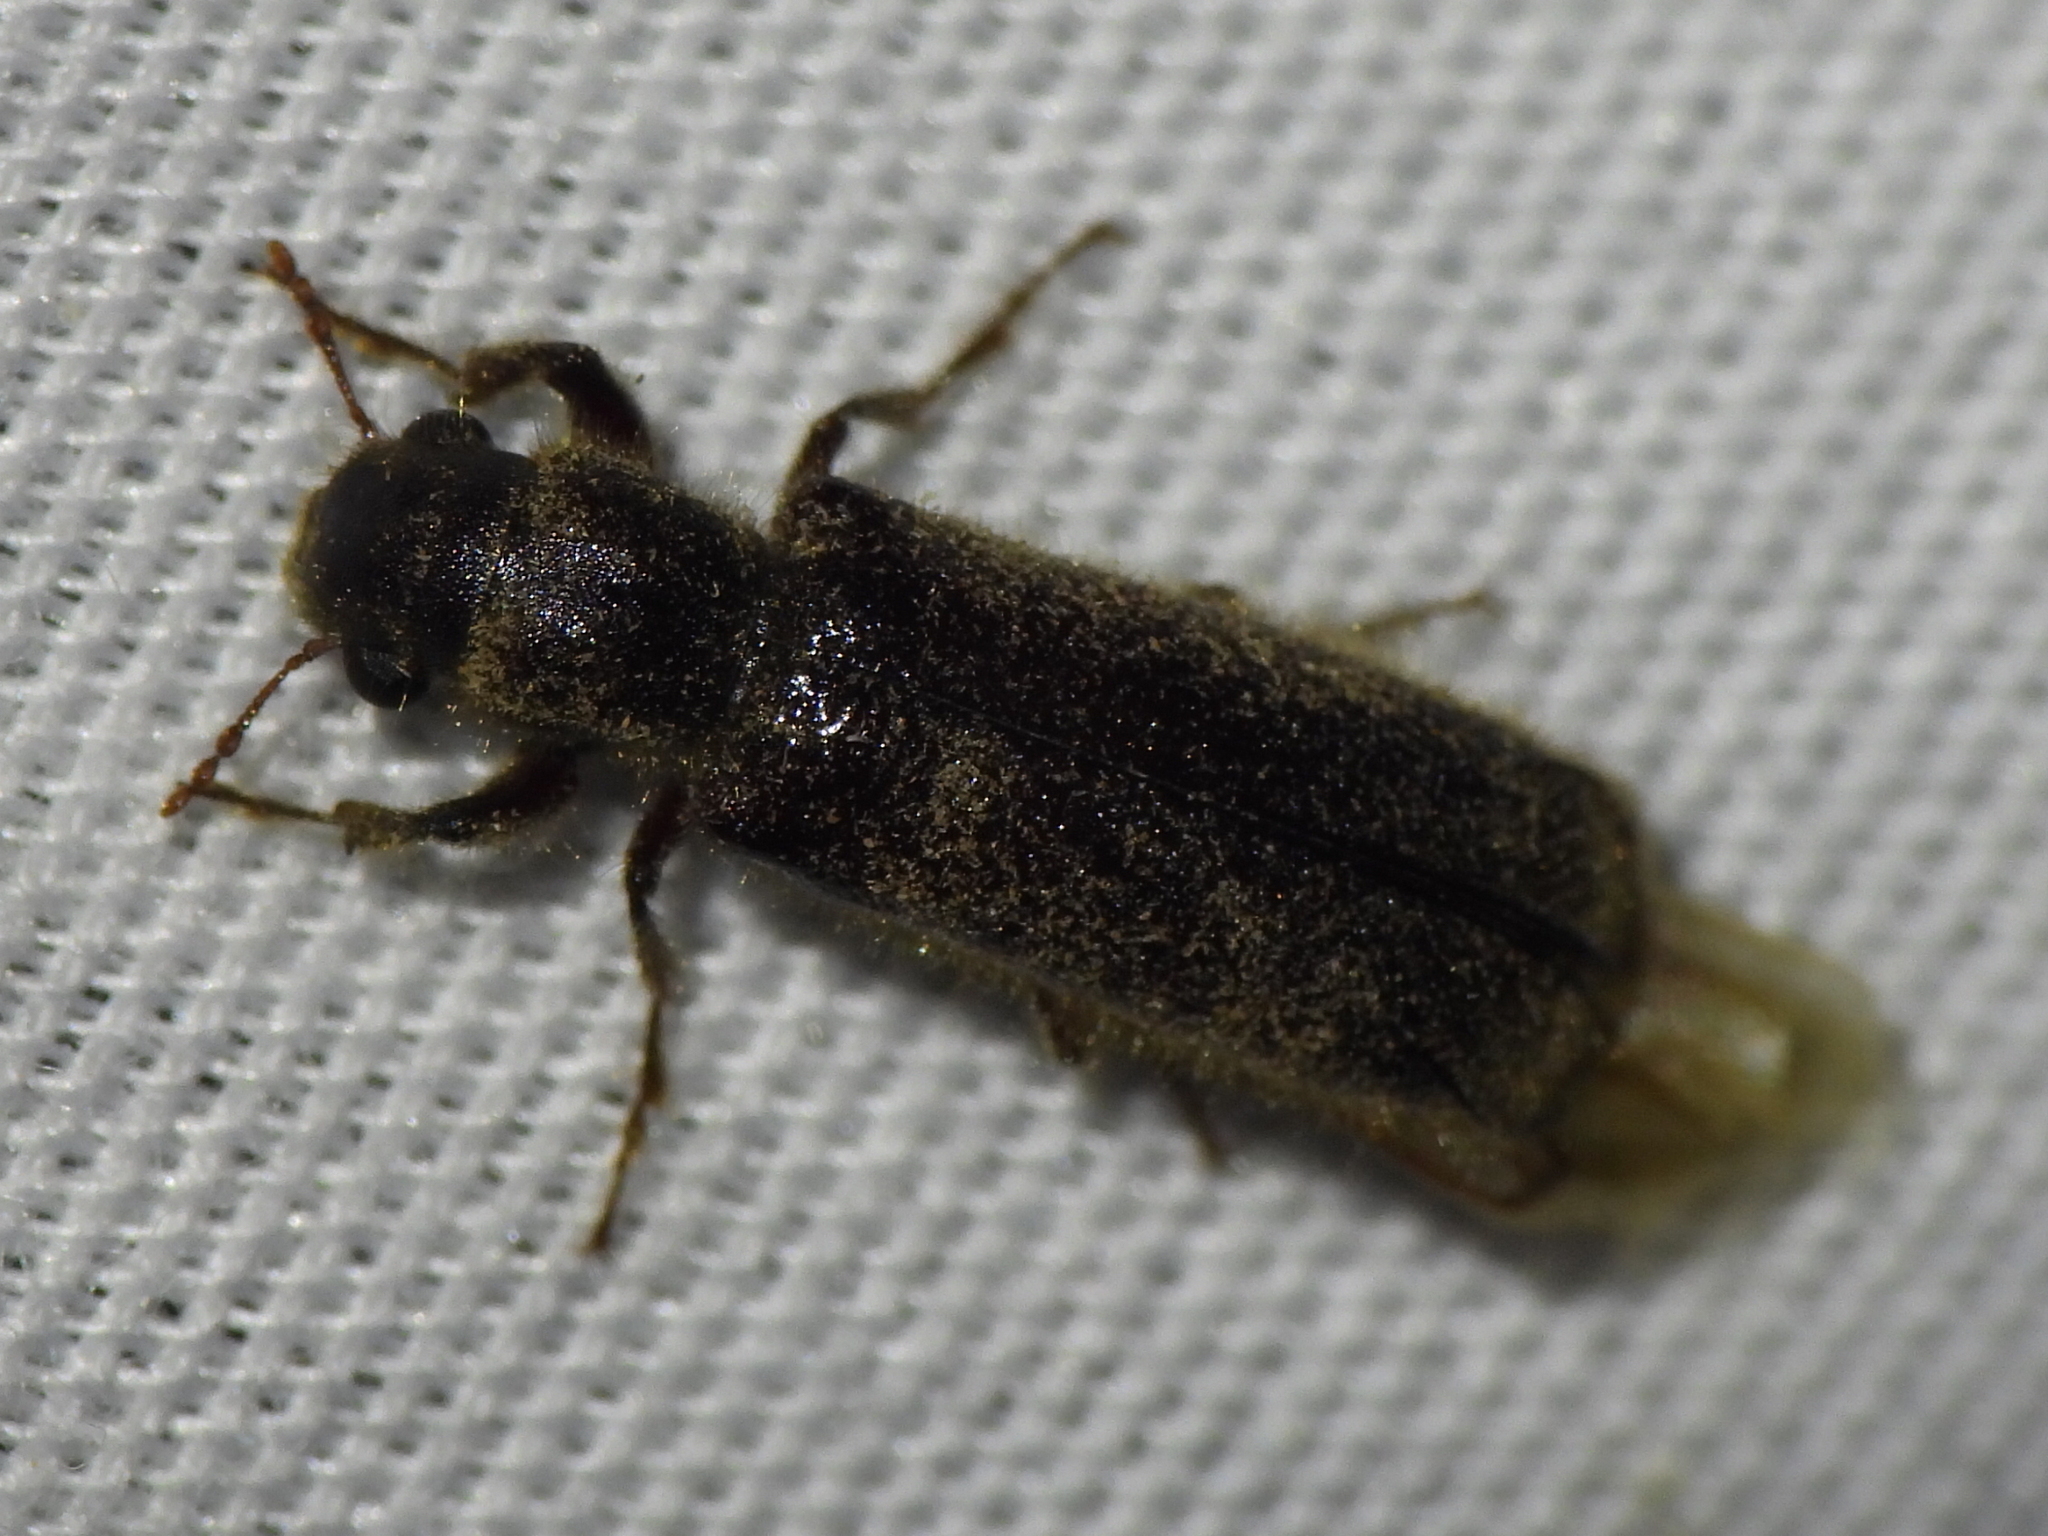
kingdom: Animalia
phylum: Arthropoda
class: Insecta
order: Coleoptera
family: Bostrichidae
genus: Melalgus
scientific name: Melalgus plicatus
